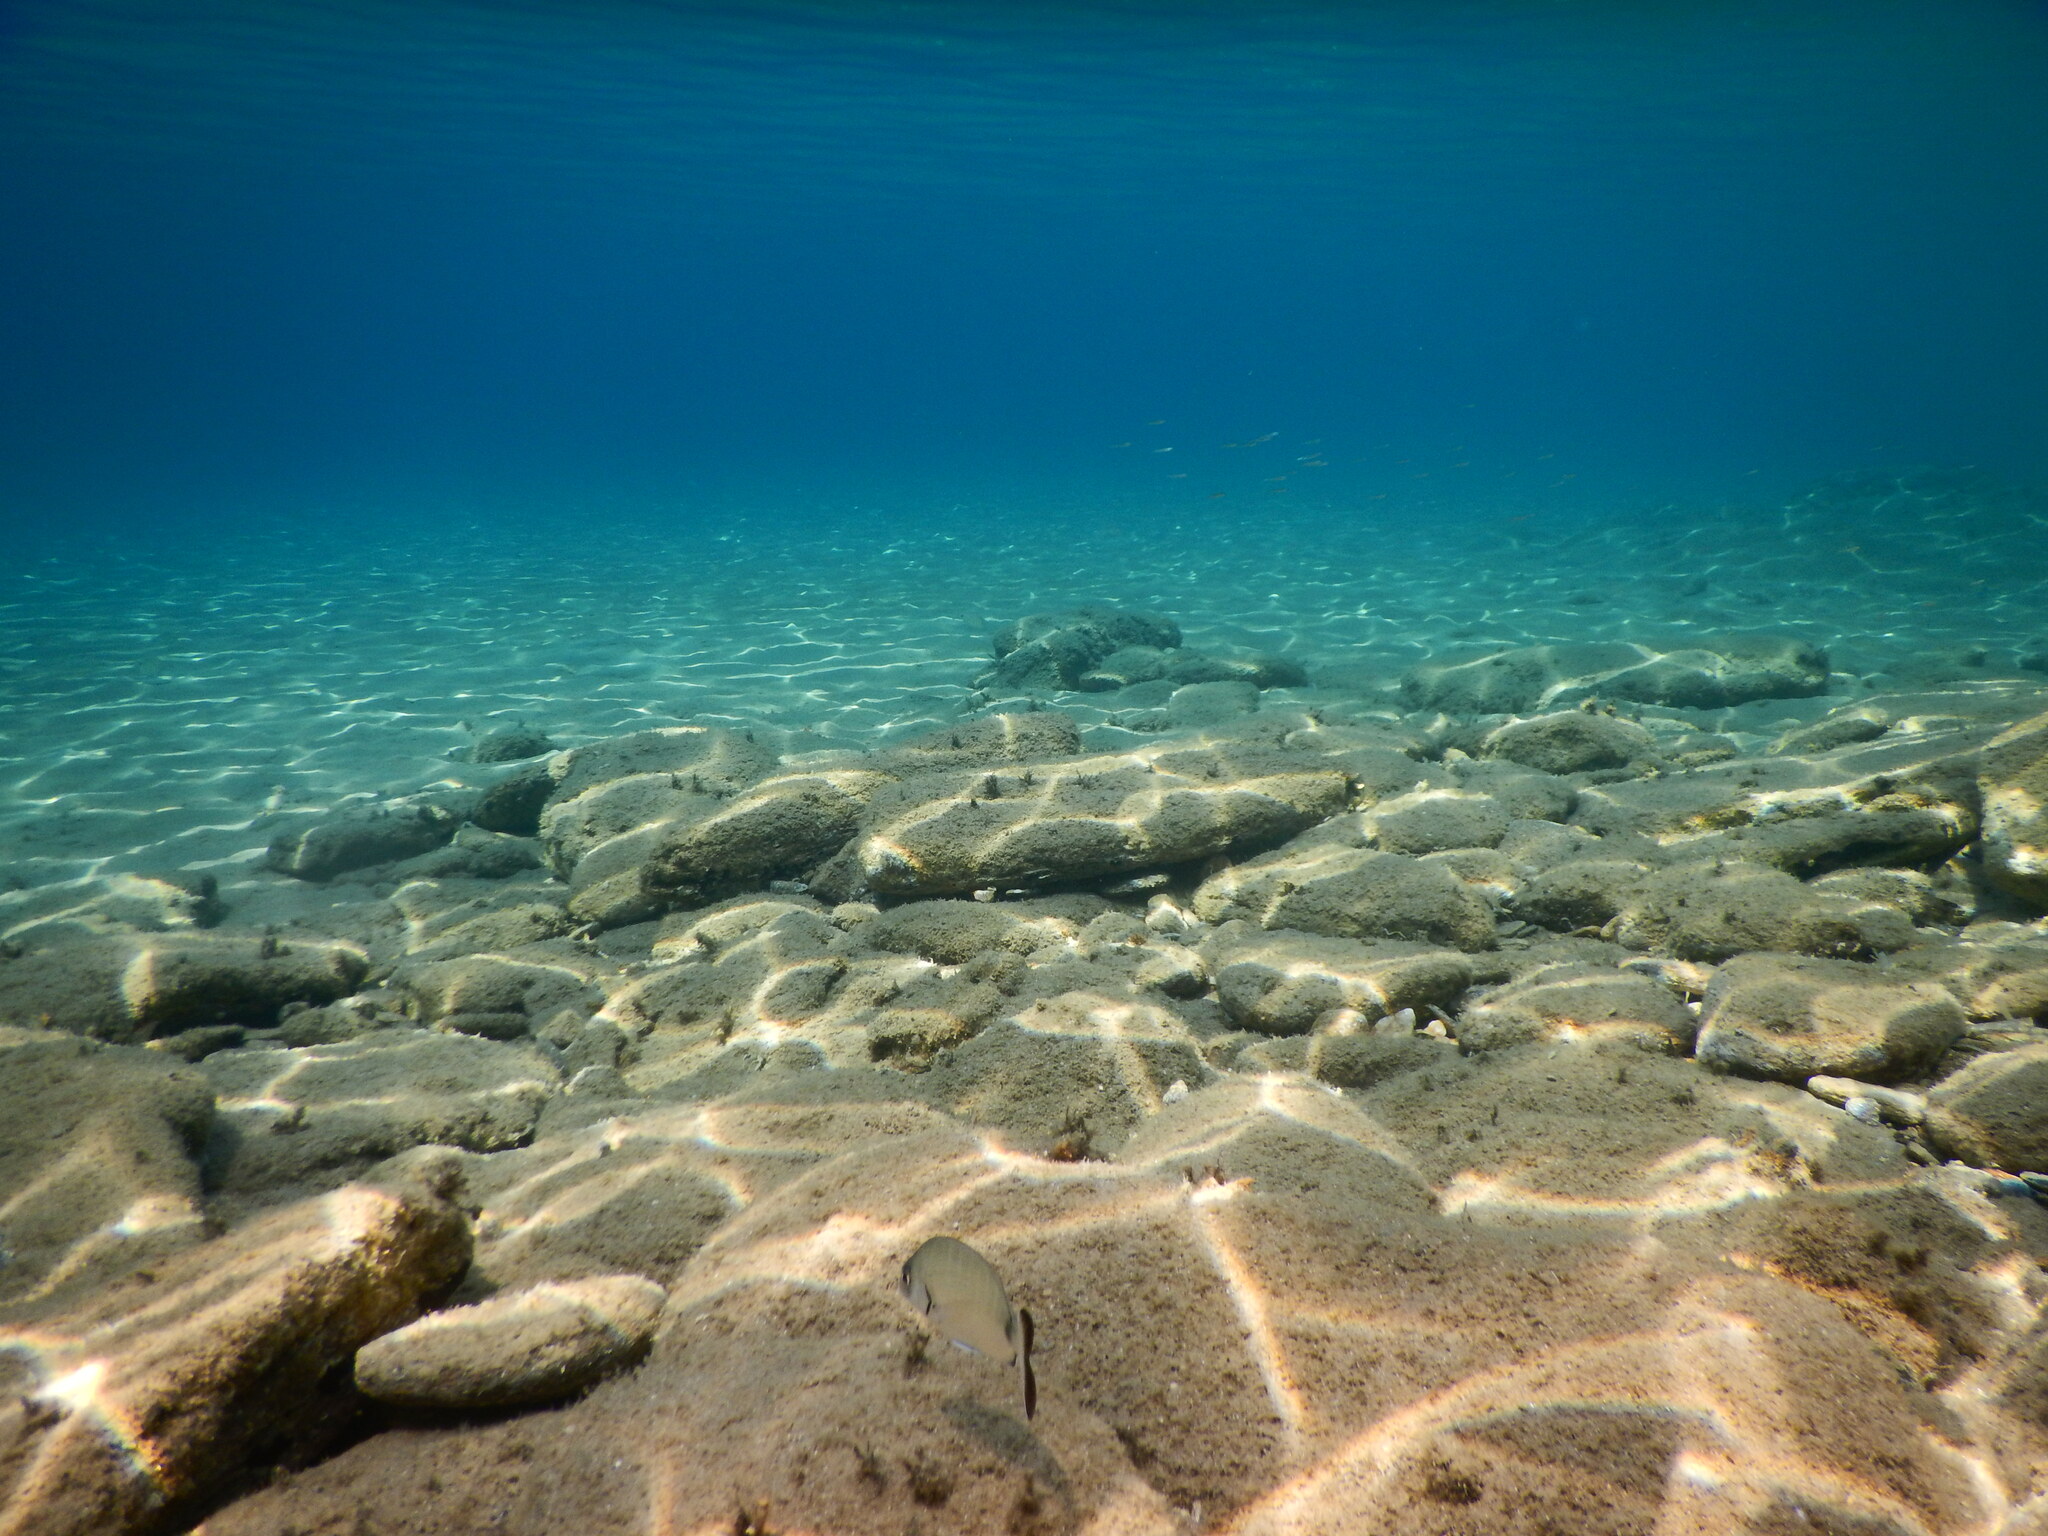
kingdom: Animalia
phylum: Chordata
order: Perciformes
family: Sparidae
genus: Diplodus
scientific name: Diplodus sargus
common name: White seabream
